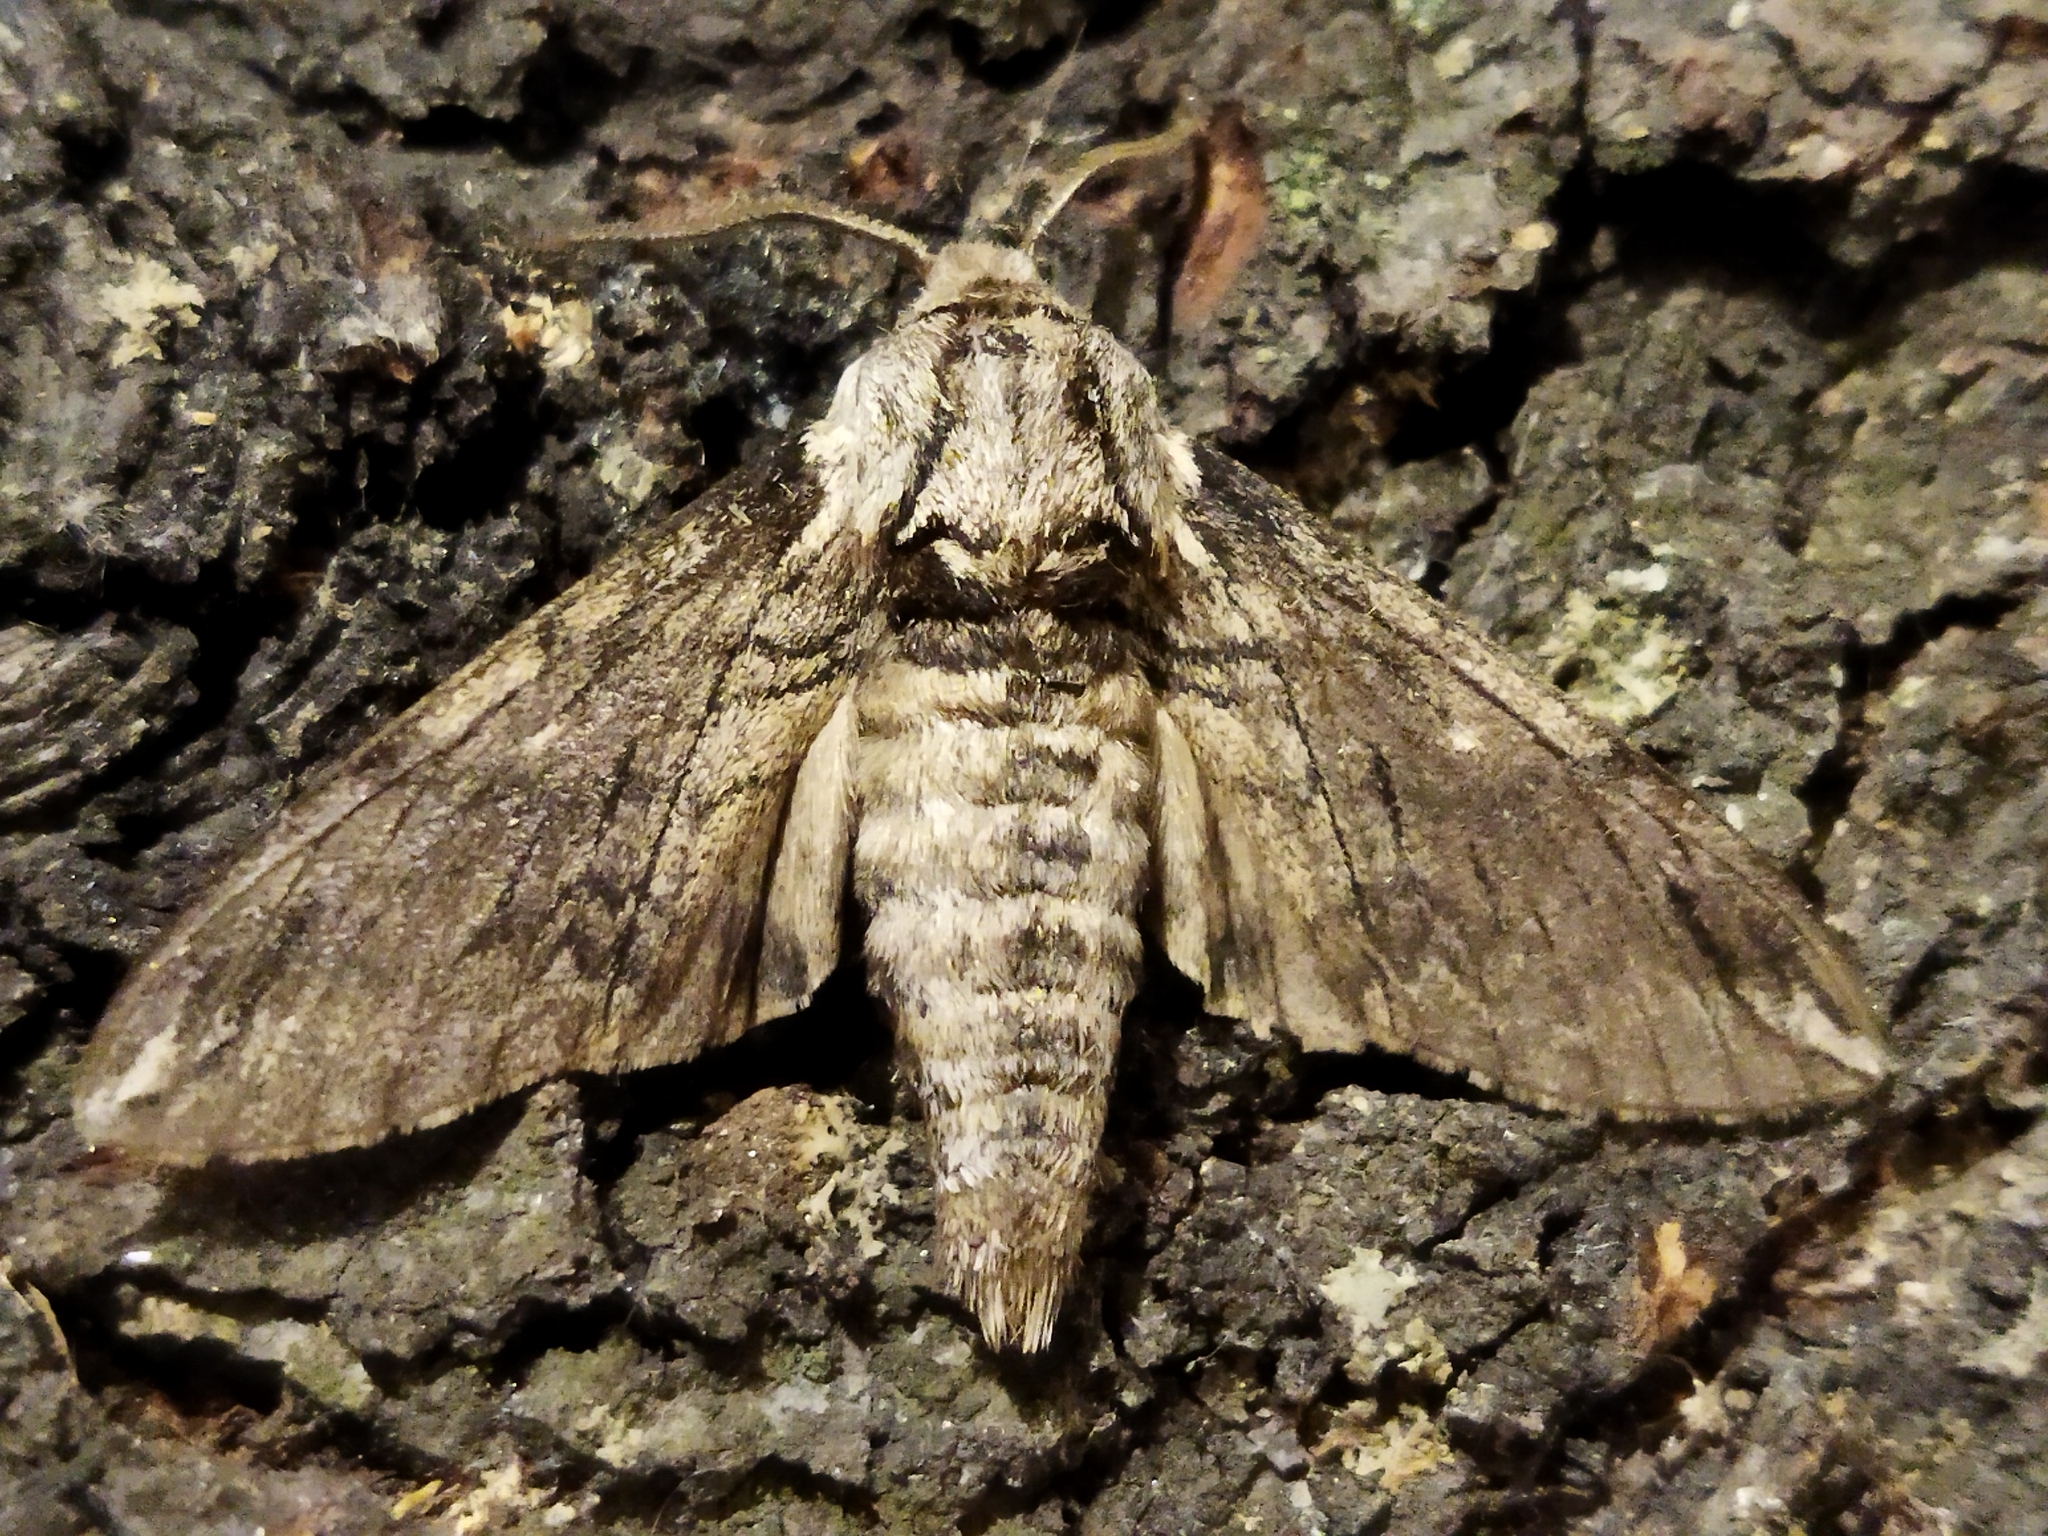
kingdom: Animalia
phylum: Arthropoda
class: Insecta
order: Lepidoptera
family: Sphingidae
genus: Dolbina
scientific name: Dolbina elegans
